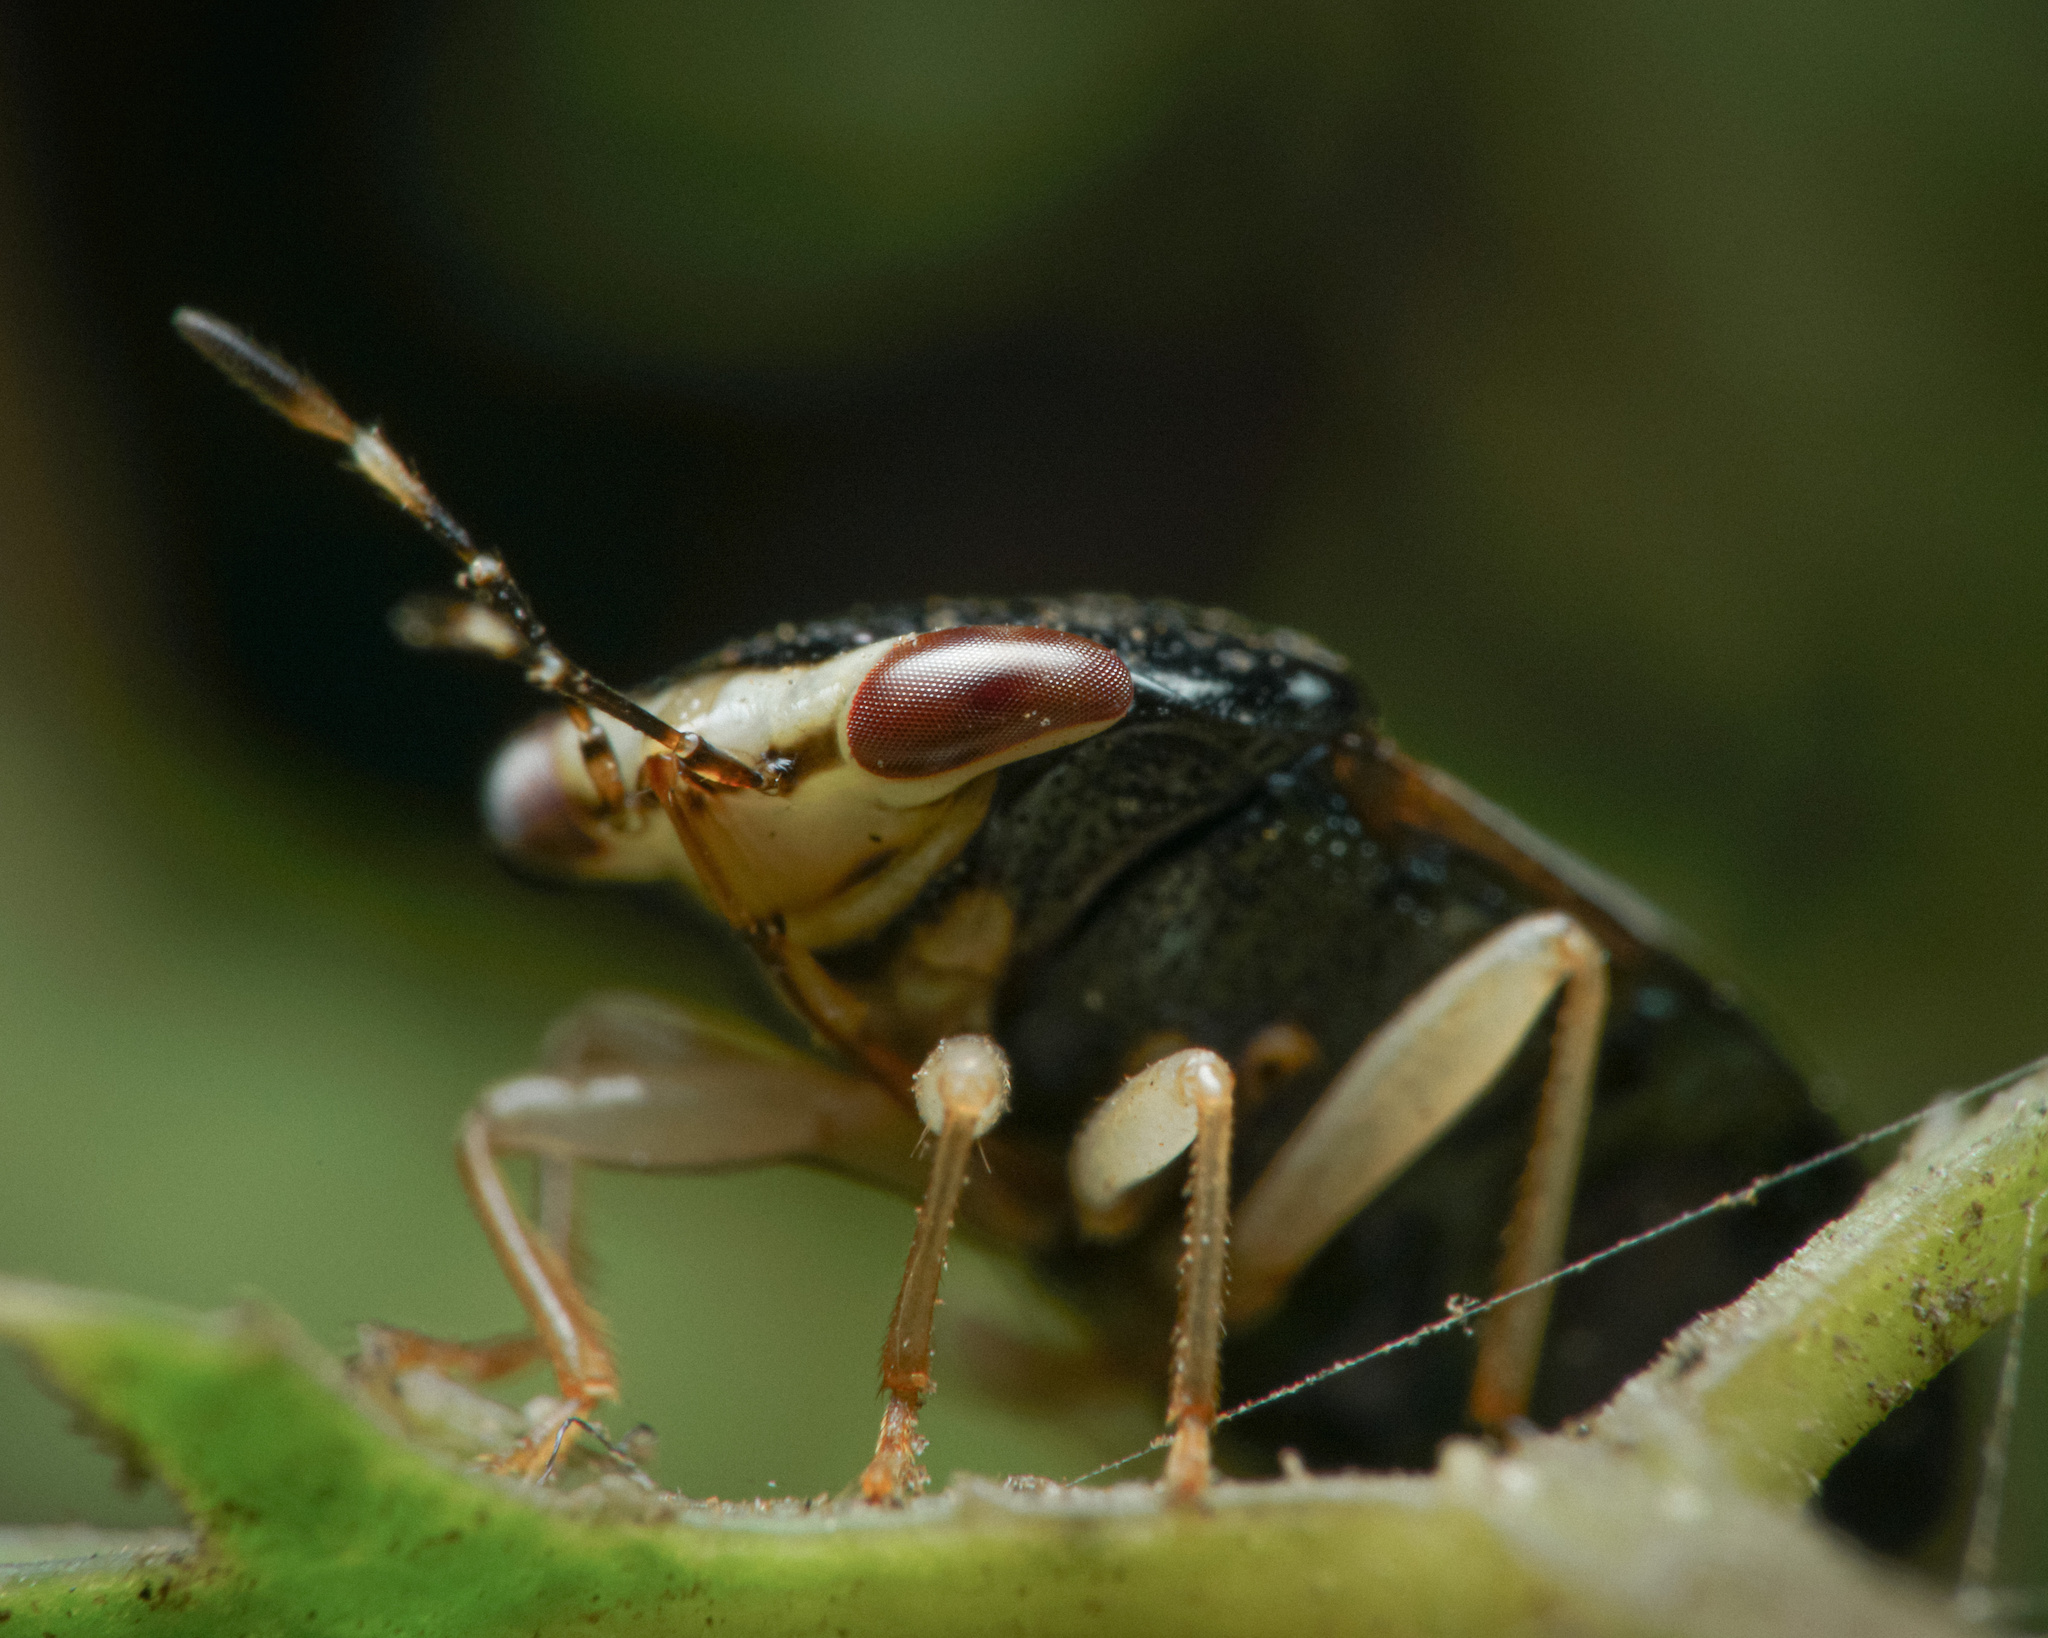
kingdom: Animalia
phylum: Arthropoda
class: Insecta
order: Hemiptera
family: Geocoridae
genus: Geocoris
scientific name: Geocoris flaviceps
